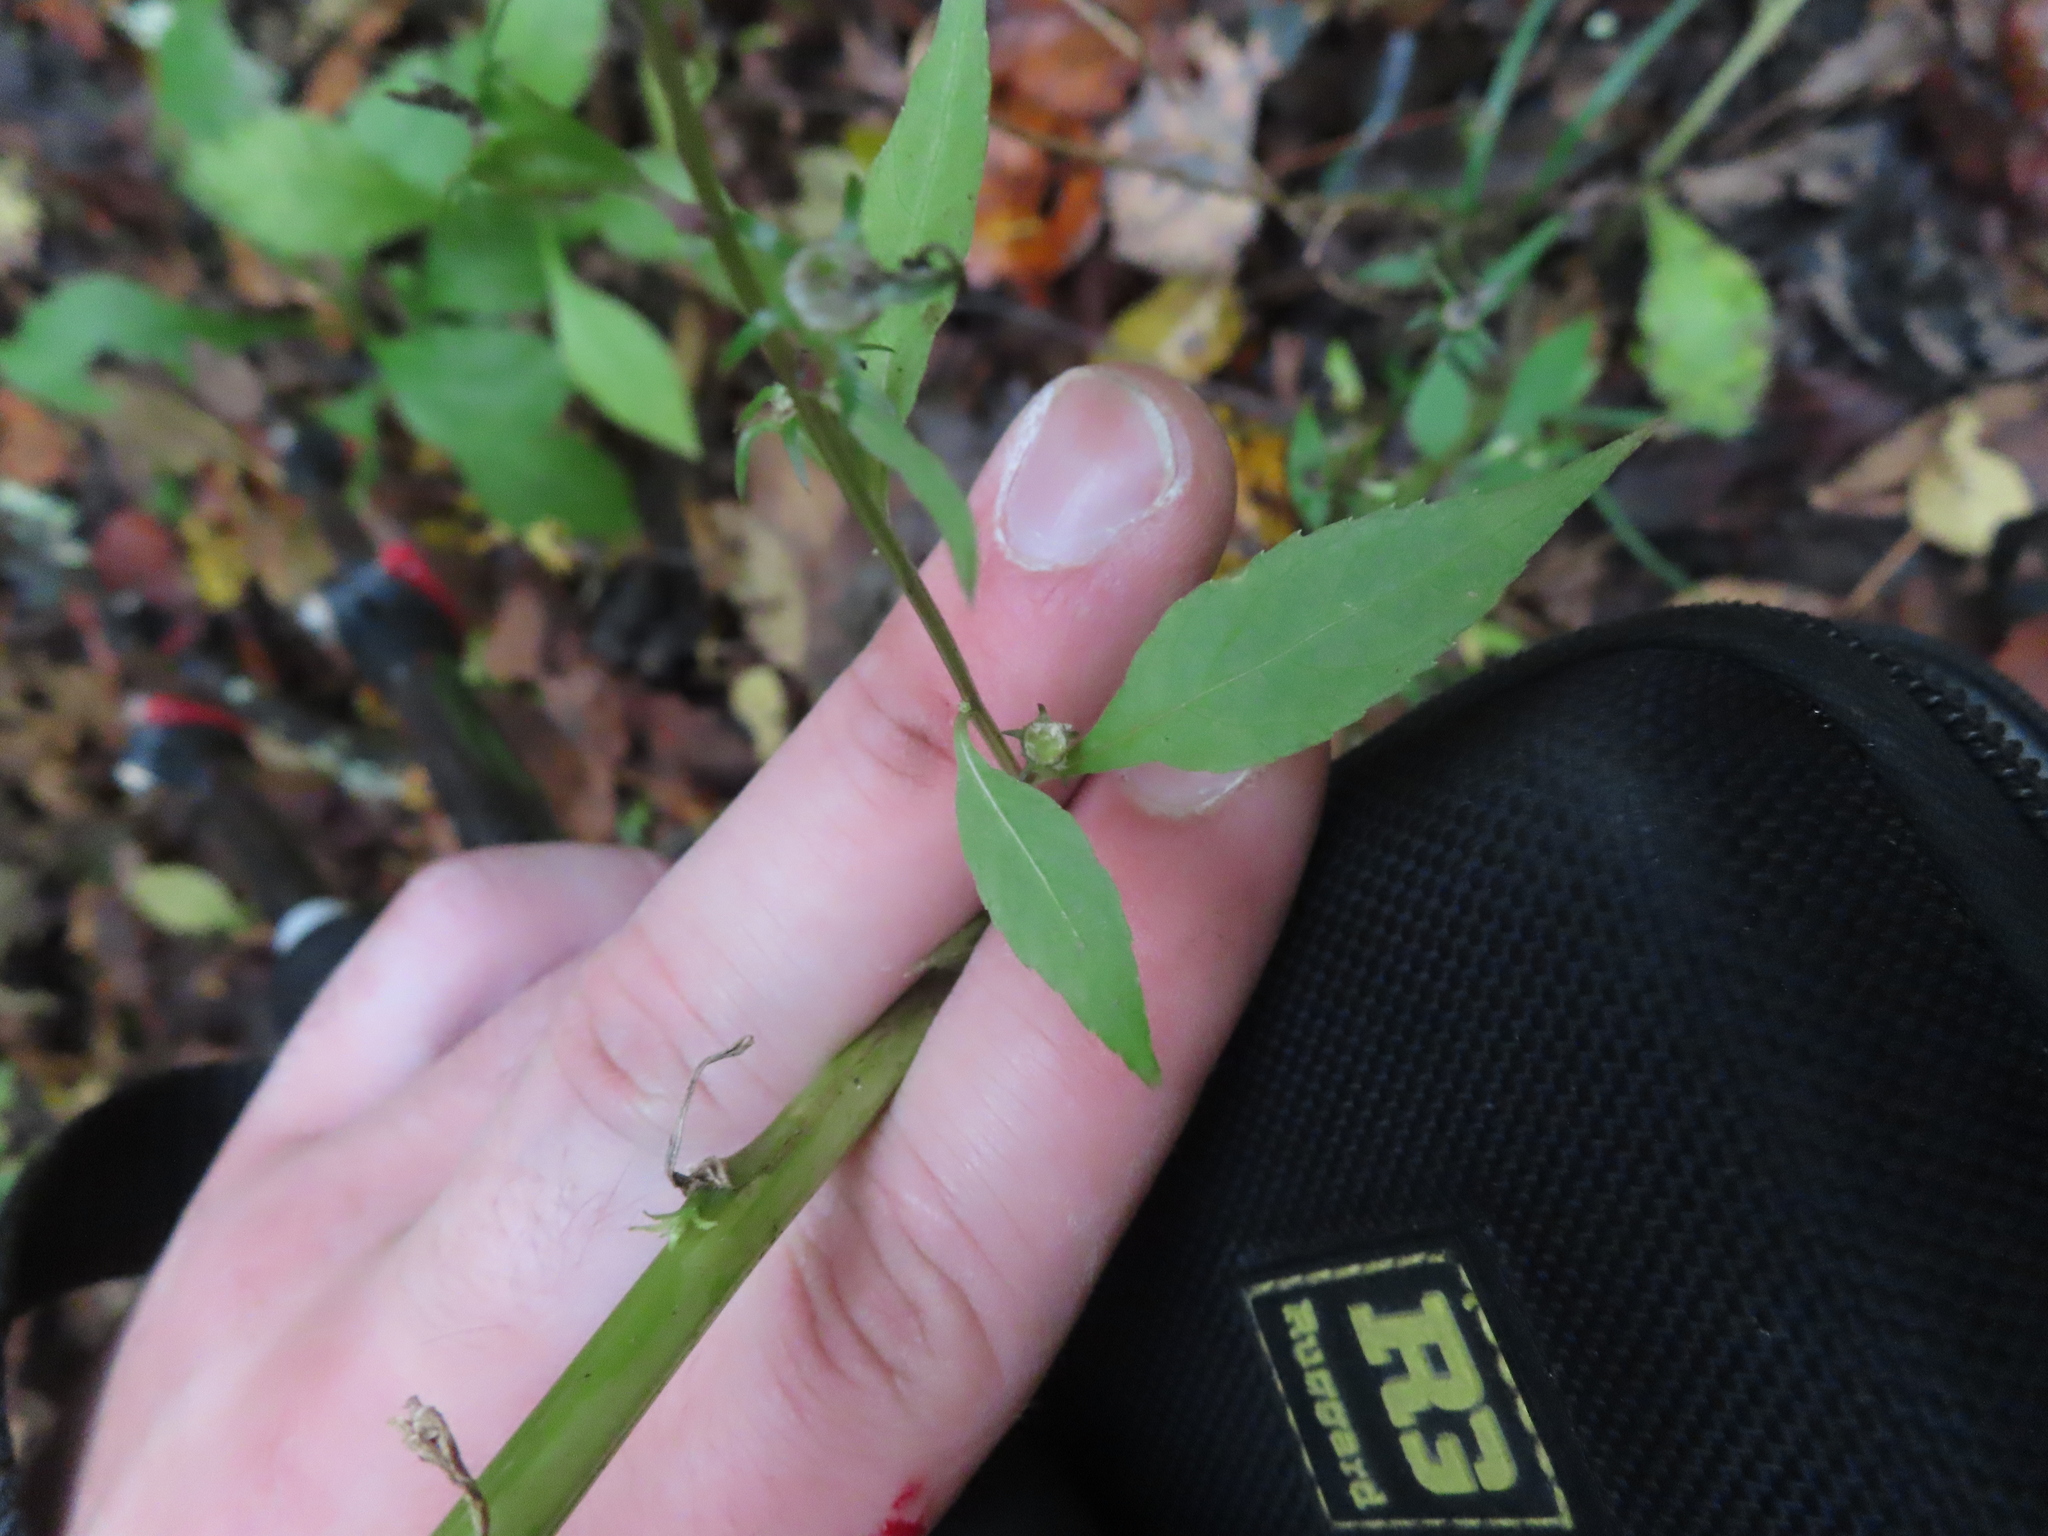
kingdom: Plantae
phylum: Tracheophyta
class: Magnoliopsida
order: Asterales
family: Campanulaceae
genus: Campanulastrum
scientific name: Campanulastrum americanum
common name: American bellflower
